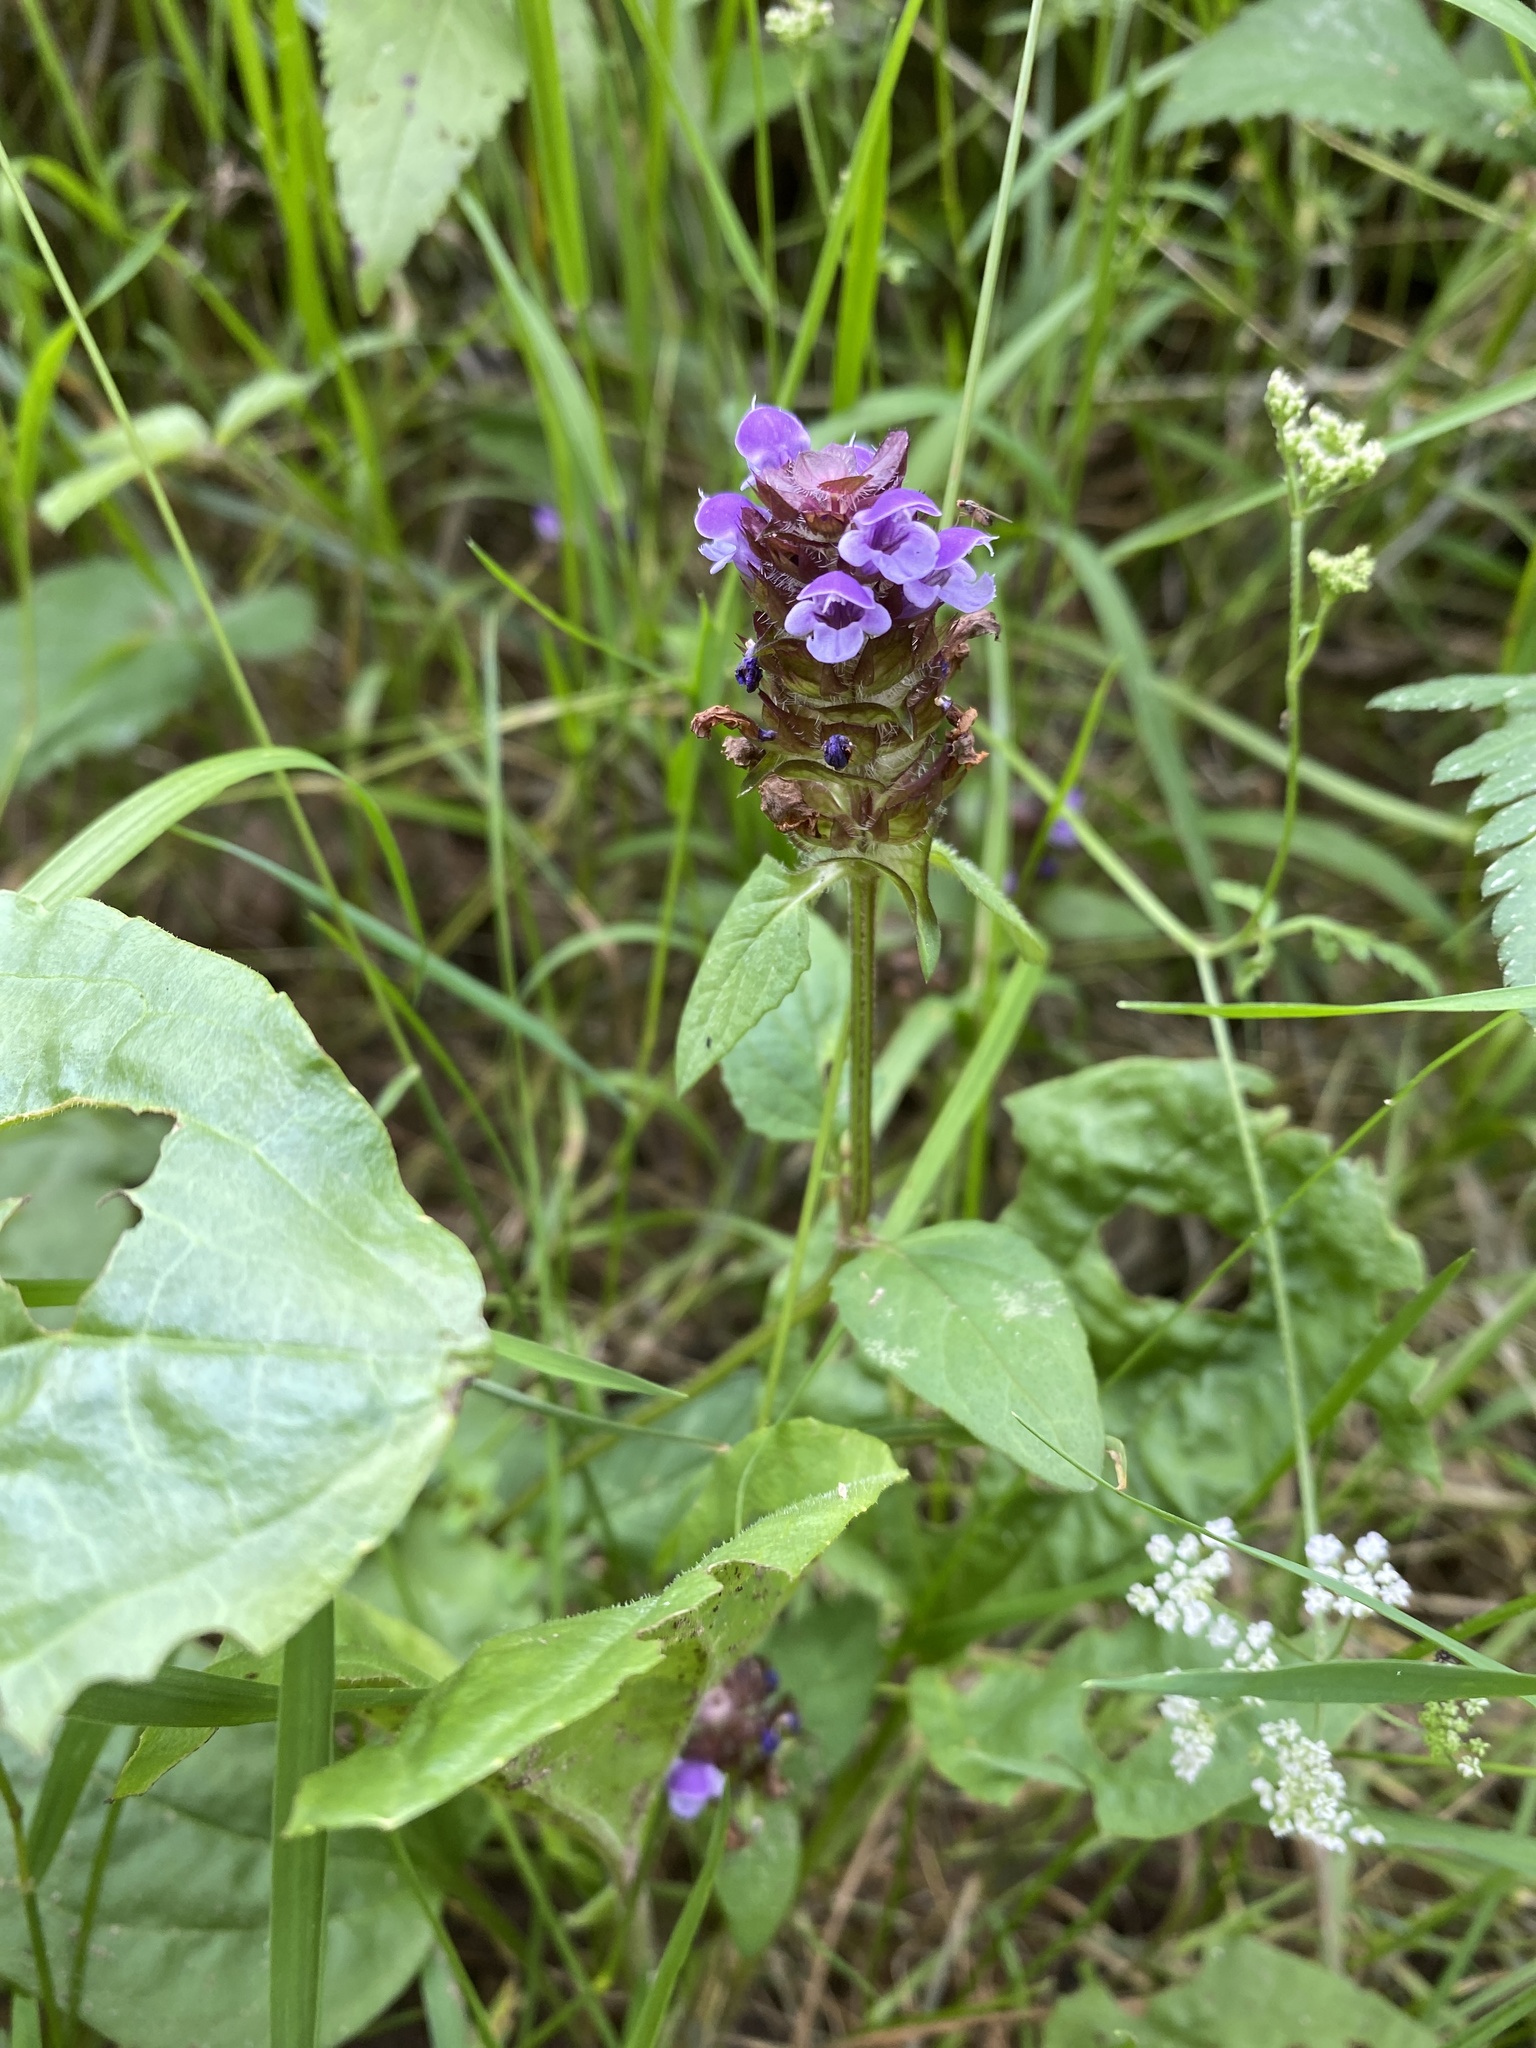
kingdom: Plantae
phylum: Tracheophyta
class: Magnoliopsida
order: Lamiales
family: Lamiaceae
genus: Prunella
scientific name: Prunella vulgaris
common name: Heal-all
